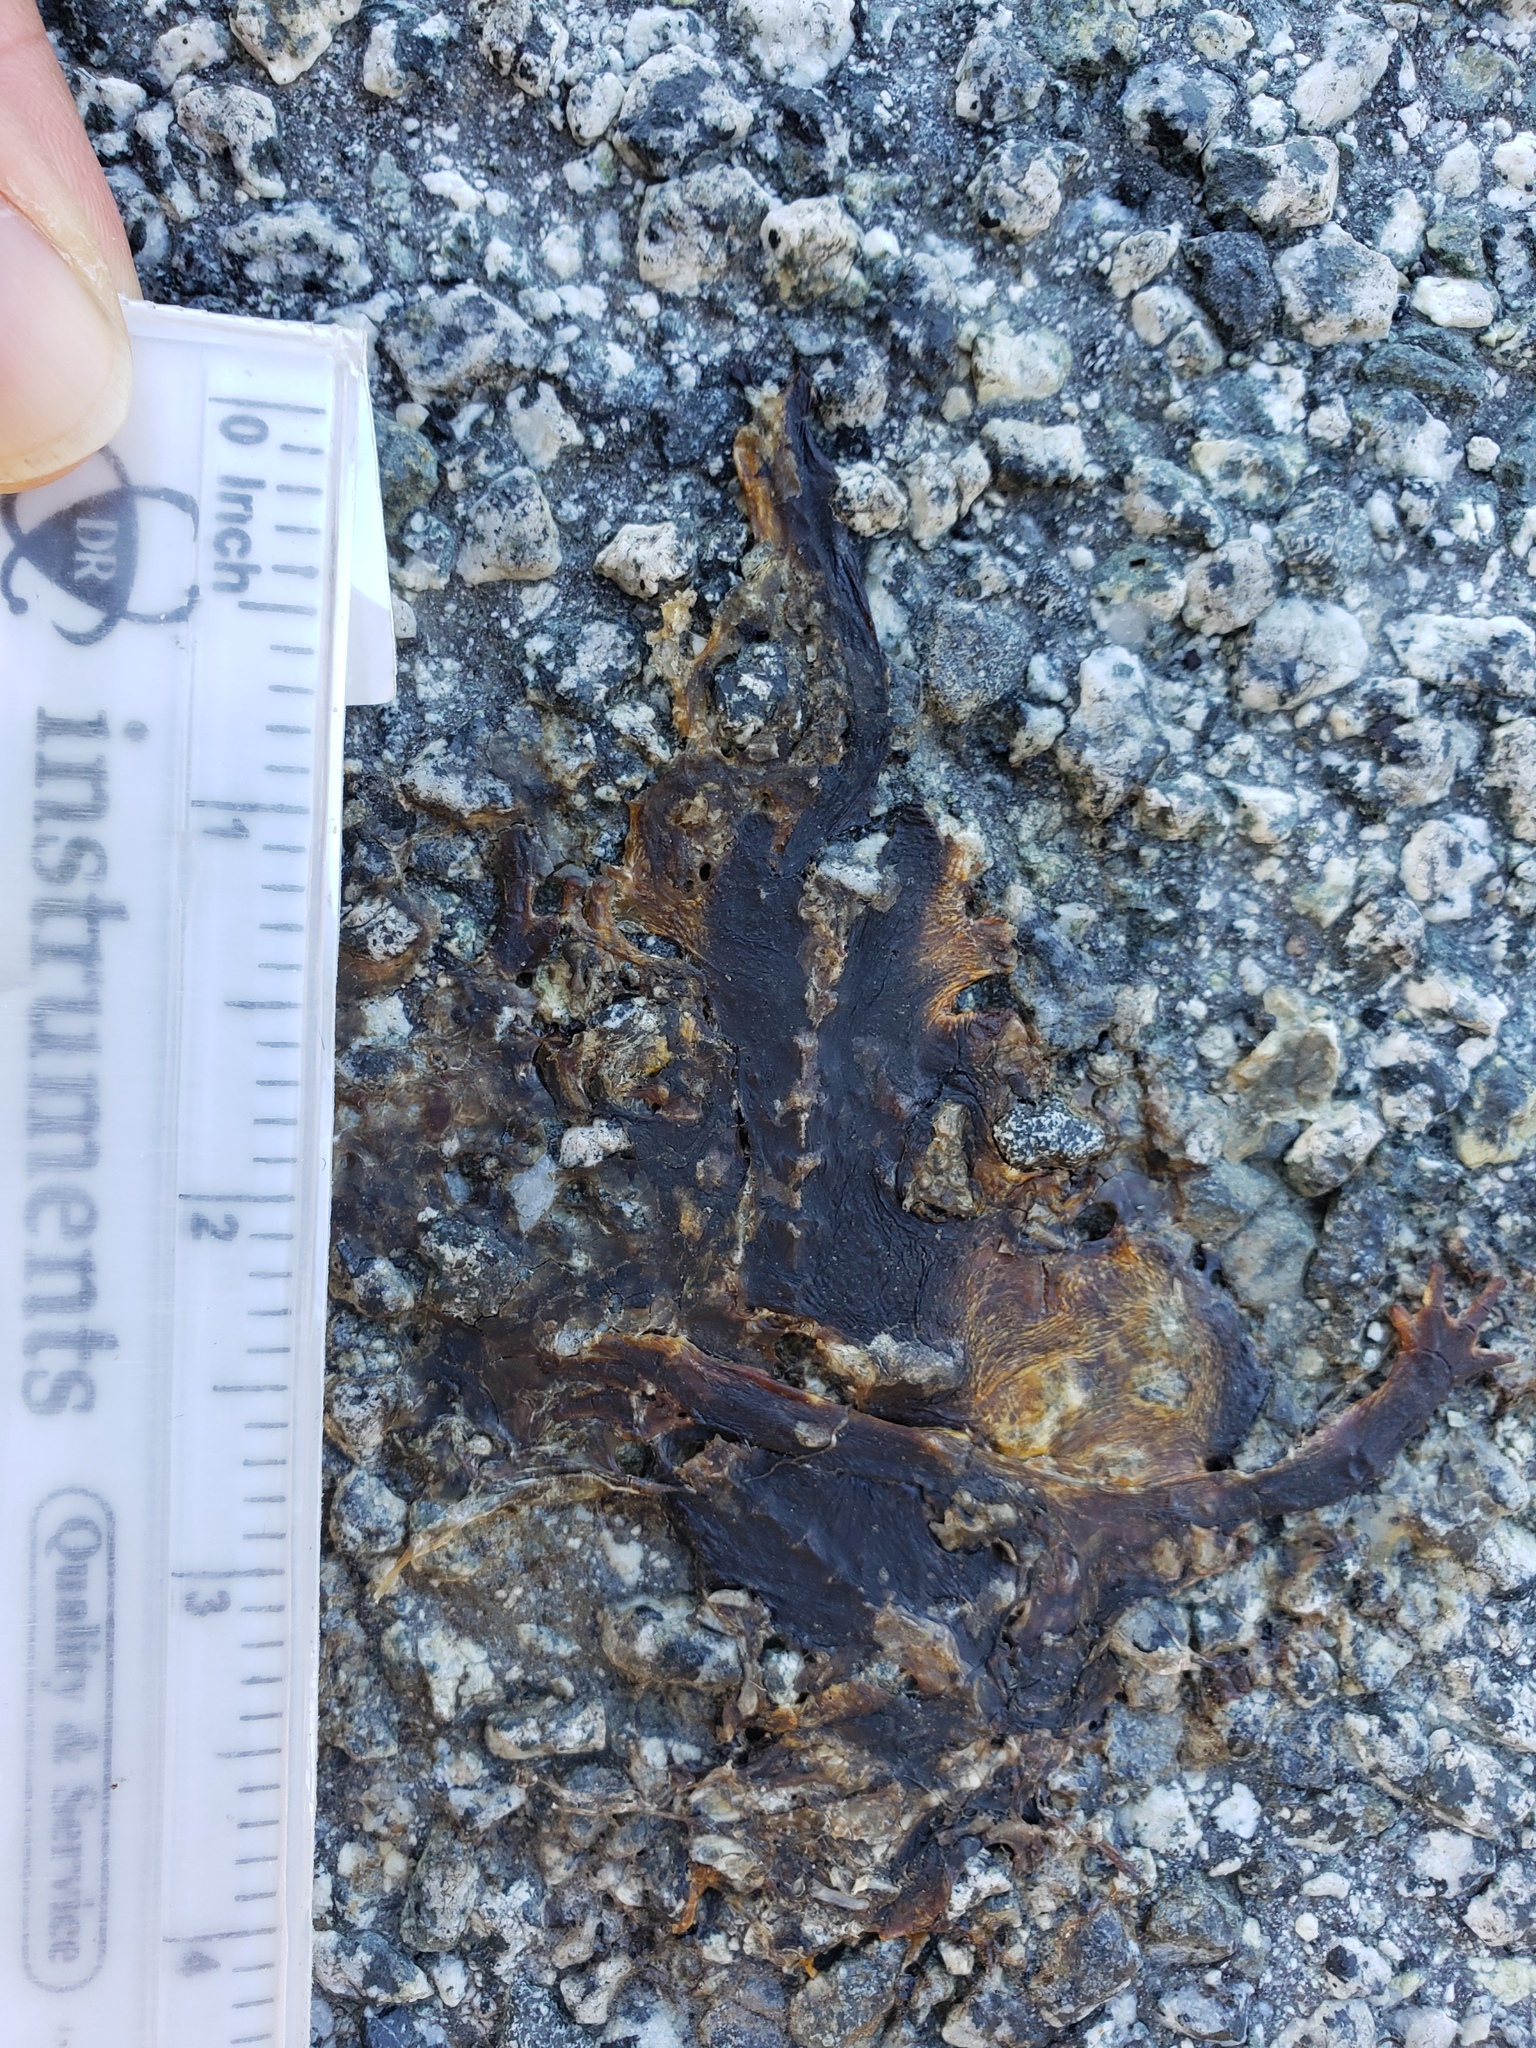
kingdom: Animalia
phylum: Chordata
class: Amphibia
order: Caudata
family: Salamandridae
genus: Taricha
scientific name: Taricha
